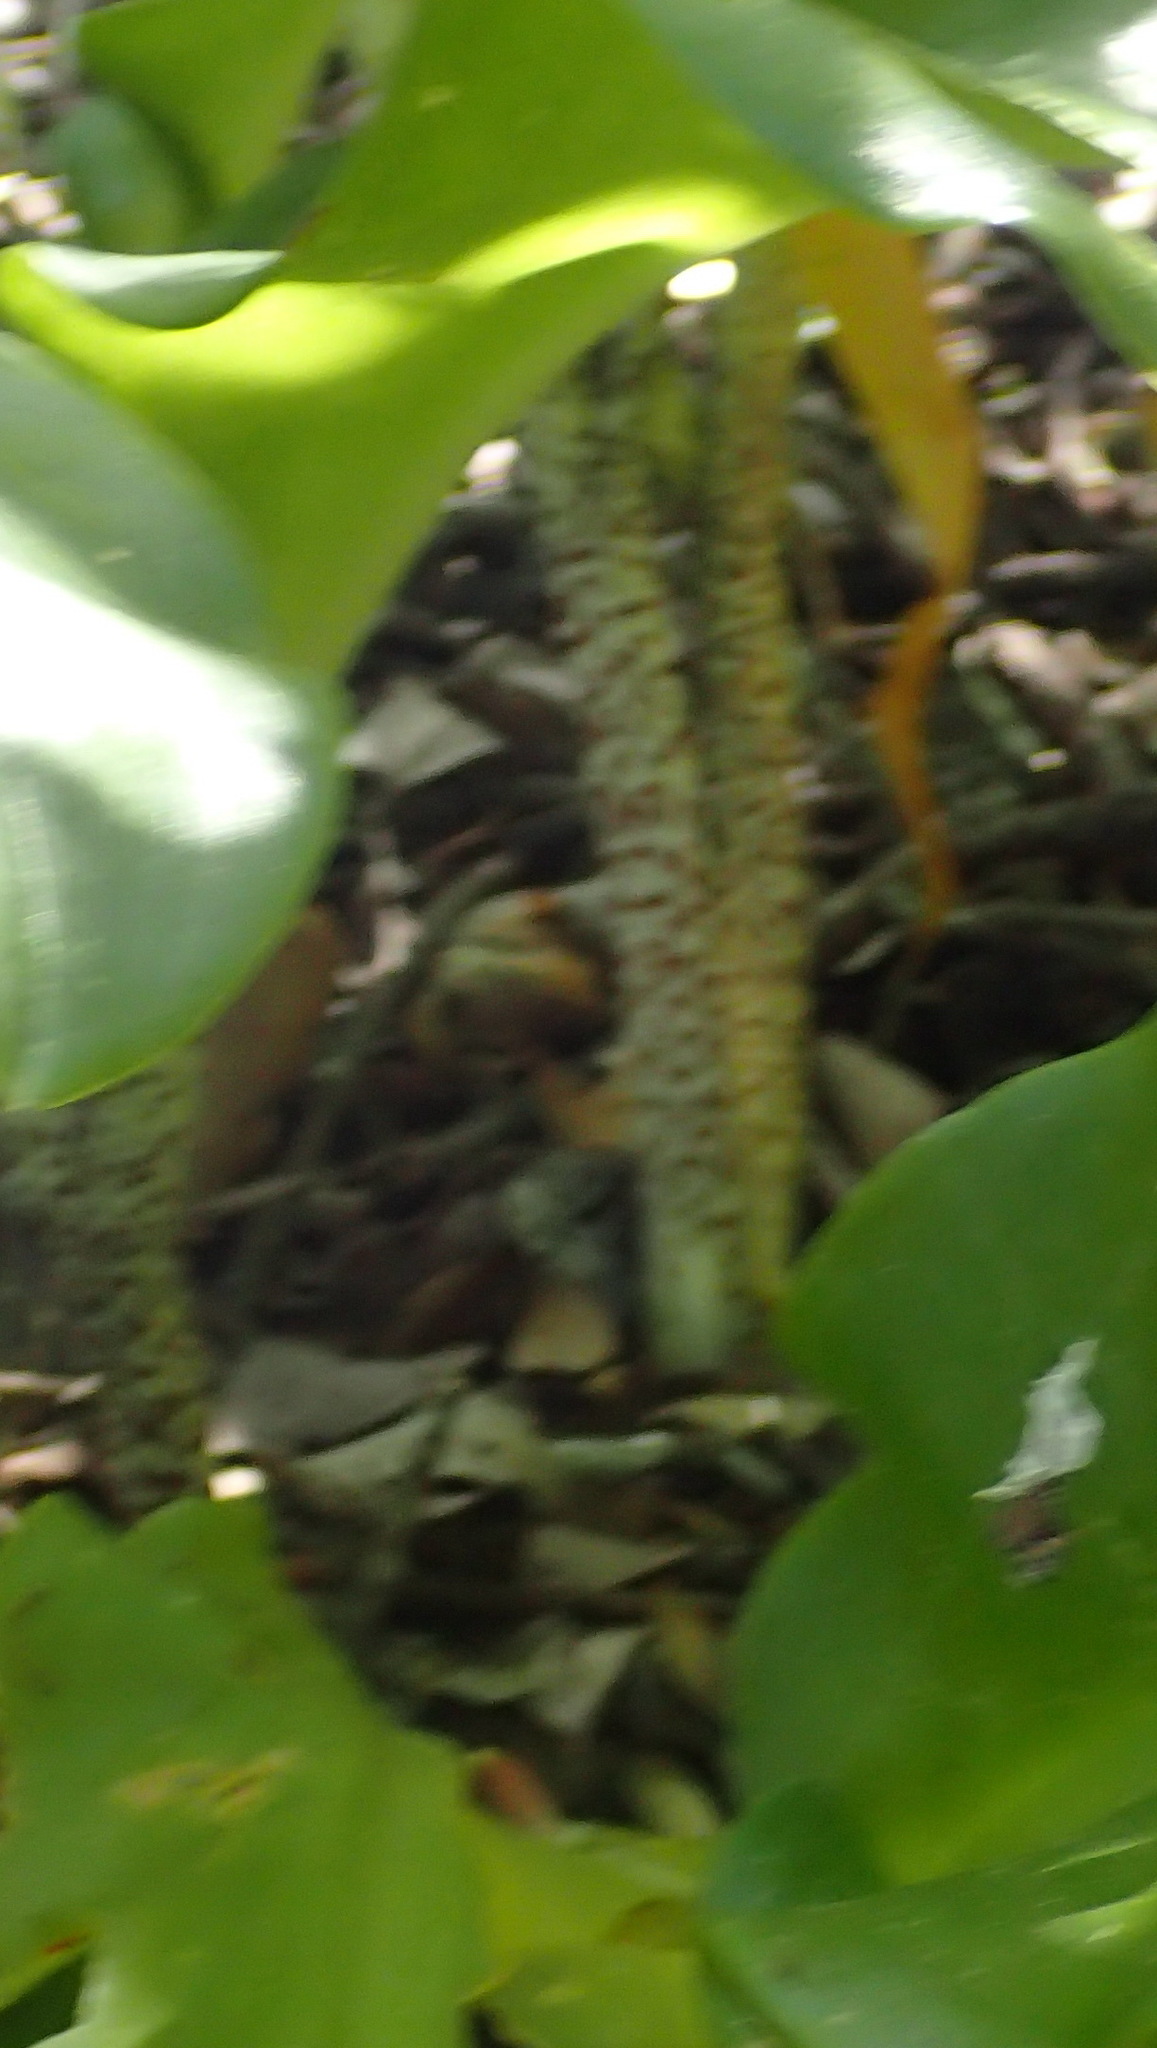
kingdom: Plantae
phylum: Tracheophyta
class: Liliopsida
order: Asparagales
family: Amaryllidaceae
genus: Scadoxus
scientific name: Scadoxus puniceus
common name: Royal-paintbrush
